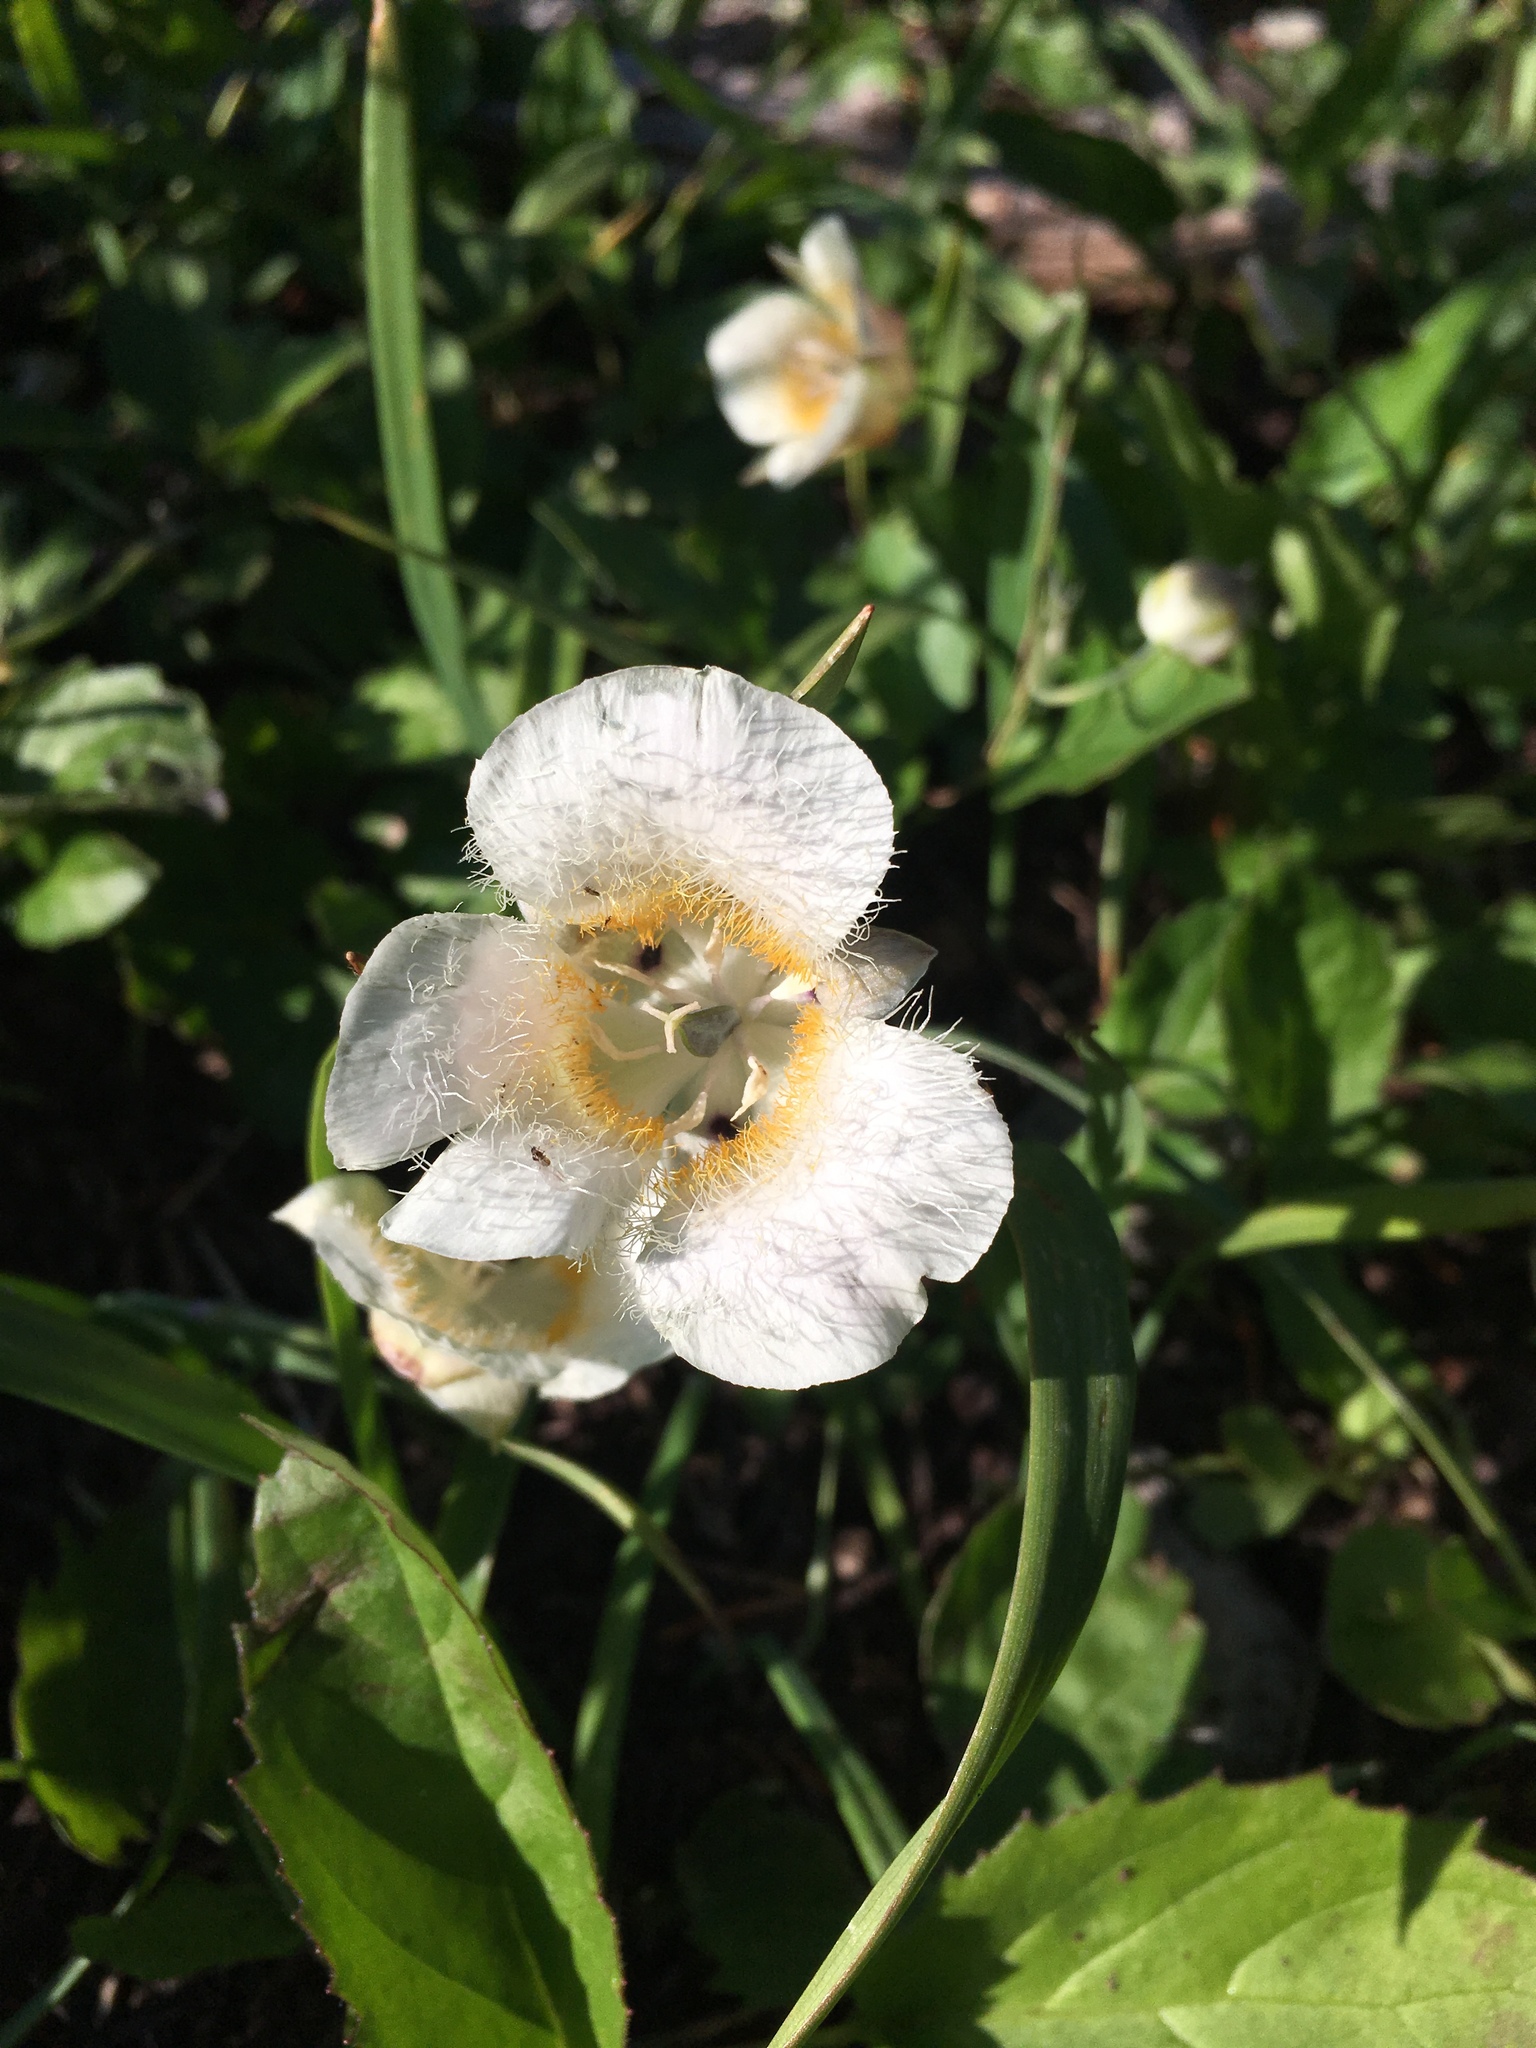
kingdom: Plantae
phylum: Tracheophyta
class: Liliopsida
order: Liliales
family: Liliaceae
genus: Calochortus
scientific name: Calochortus subalpinus
